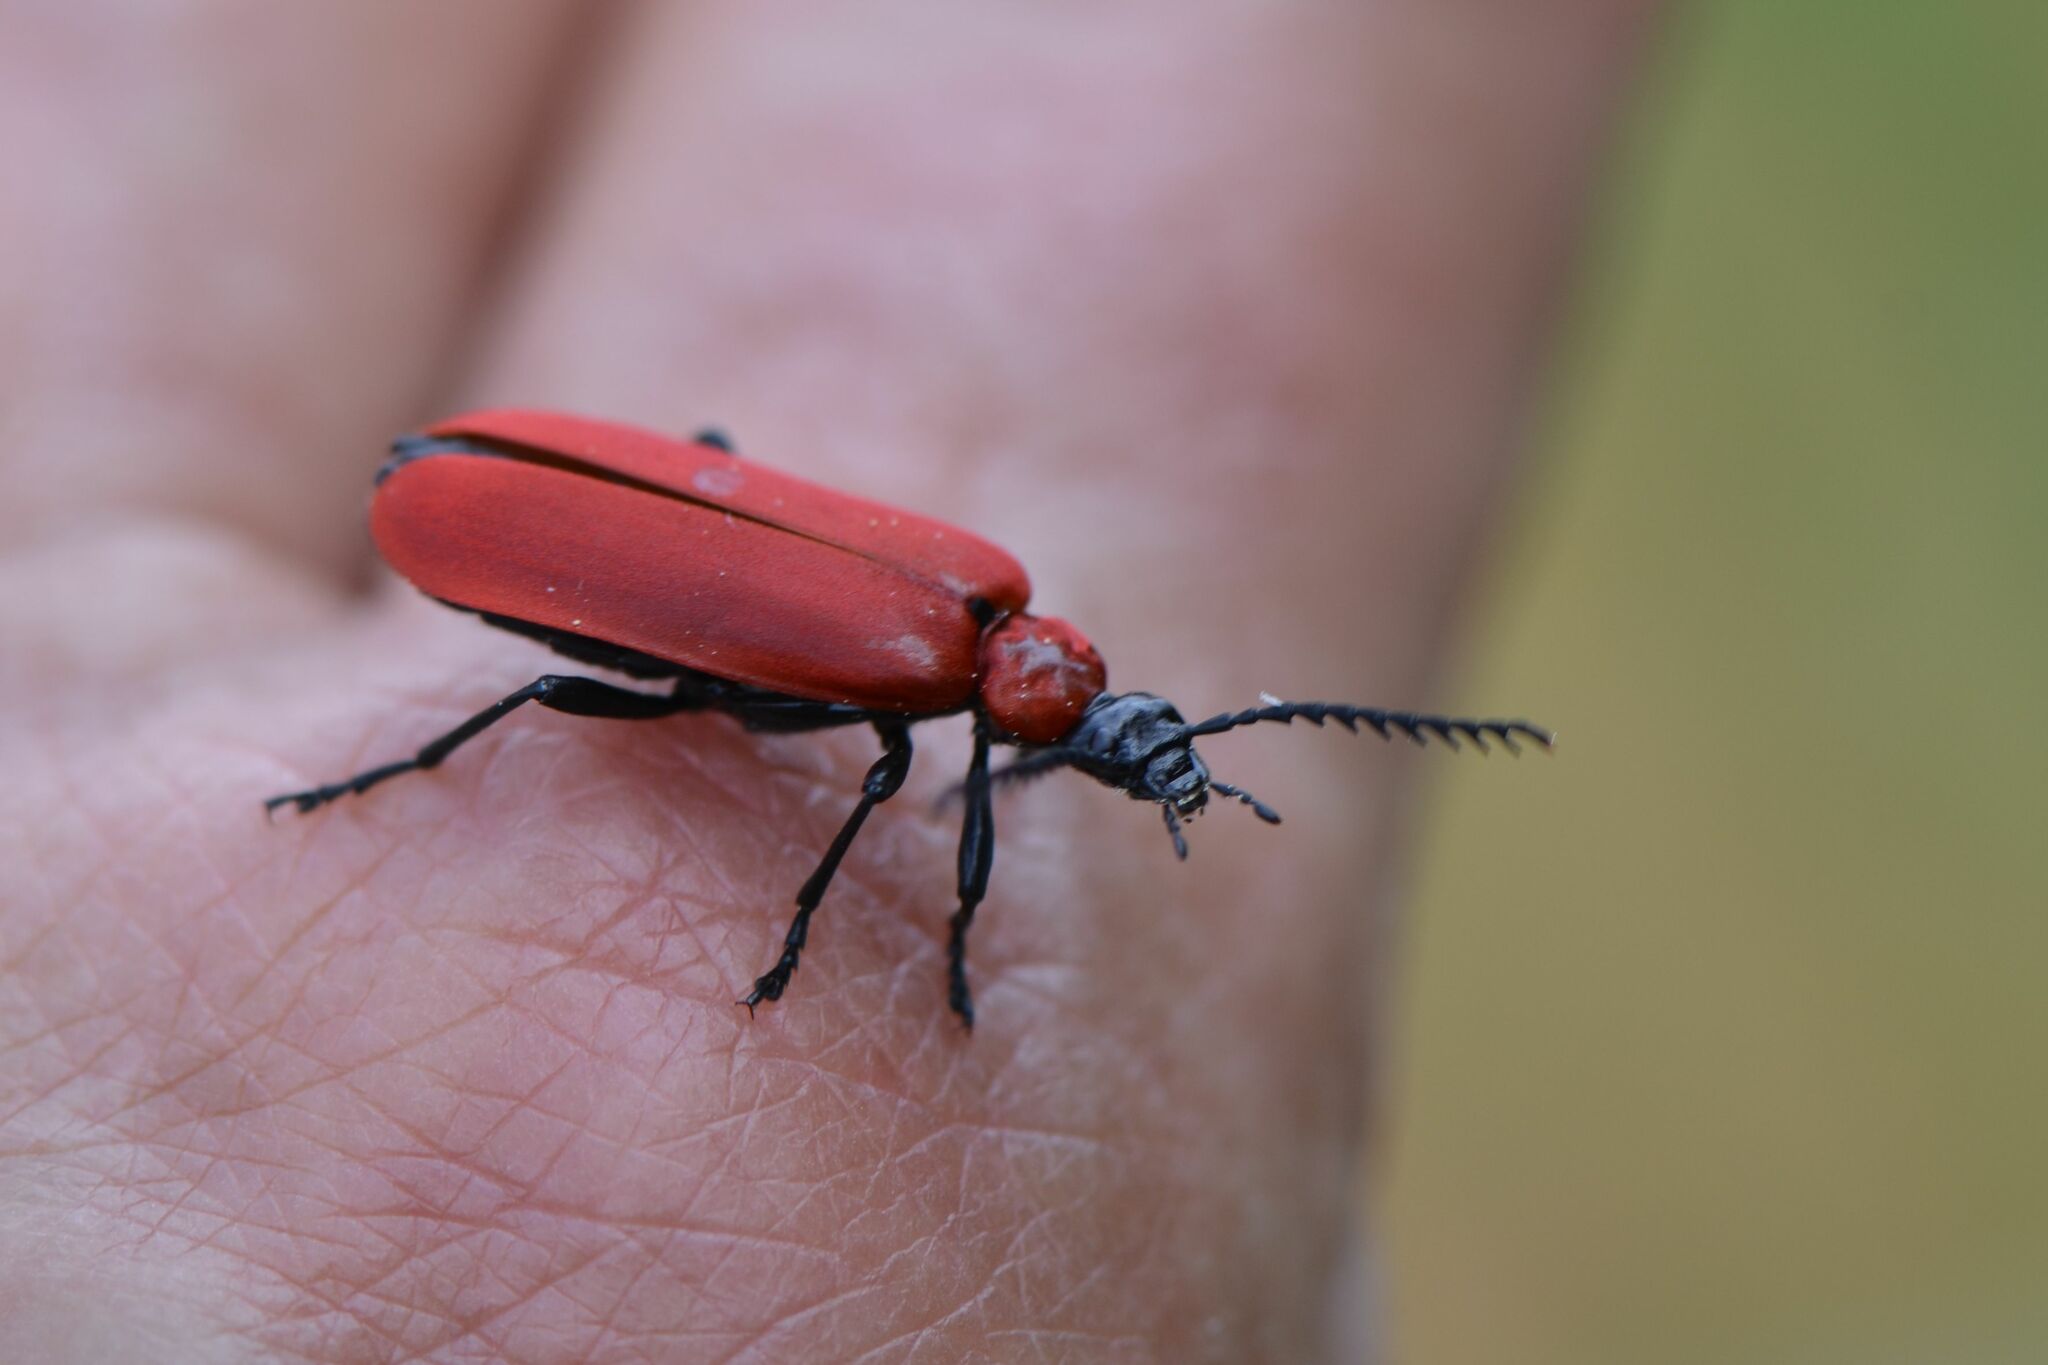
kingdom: Animalia
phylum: Arthropoda
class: Insecta
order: Coleoptera
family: Pyrochroidae
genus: Pyrochroa
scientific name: Pyrochroa coccinea
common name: Black-headed cardinal beetle
